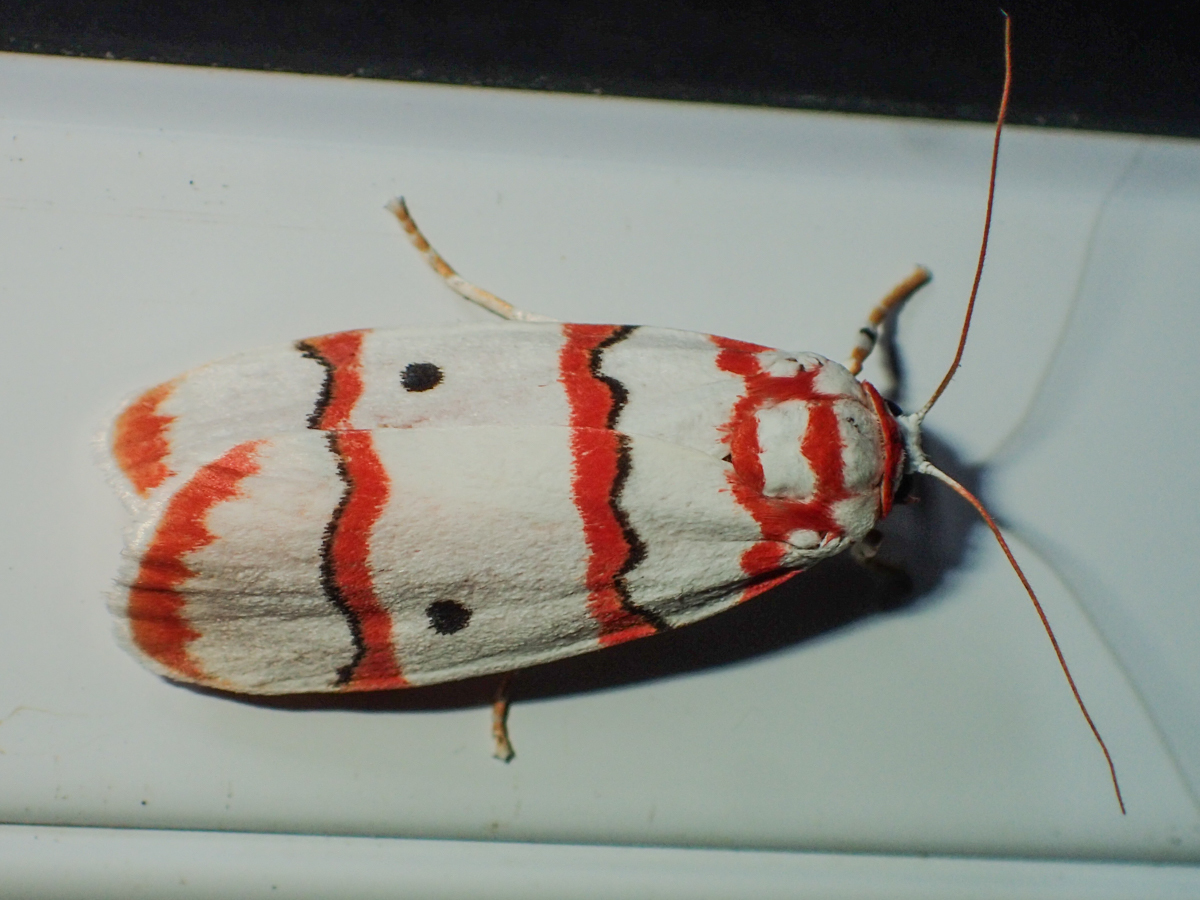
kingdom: Animalia
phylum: Arthropoda
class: Insecta
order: Lepidoptera
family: Erebidae
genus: Cyana
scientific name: Cyana pseudojavanica
